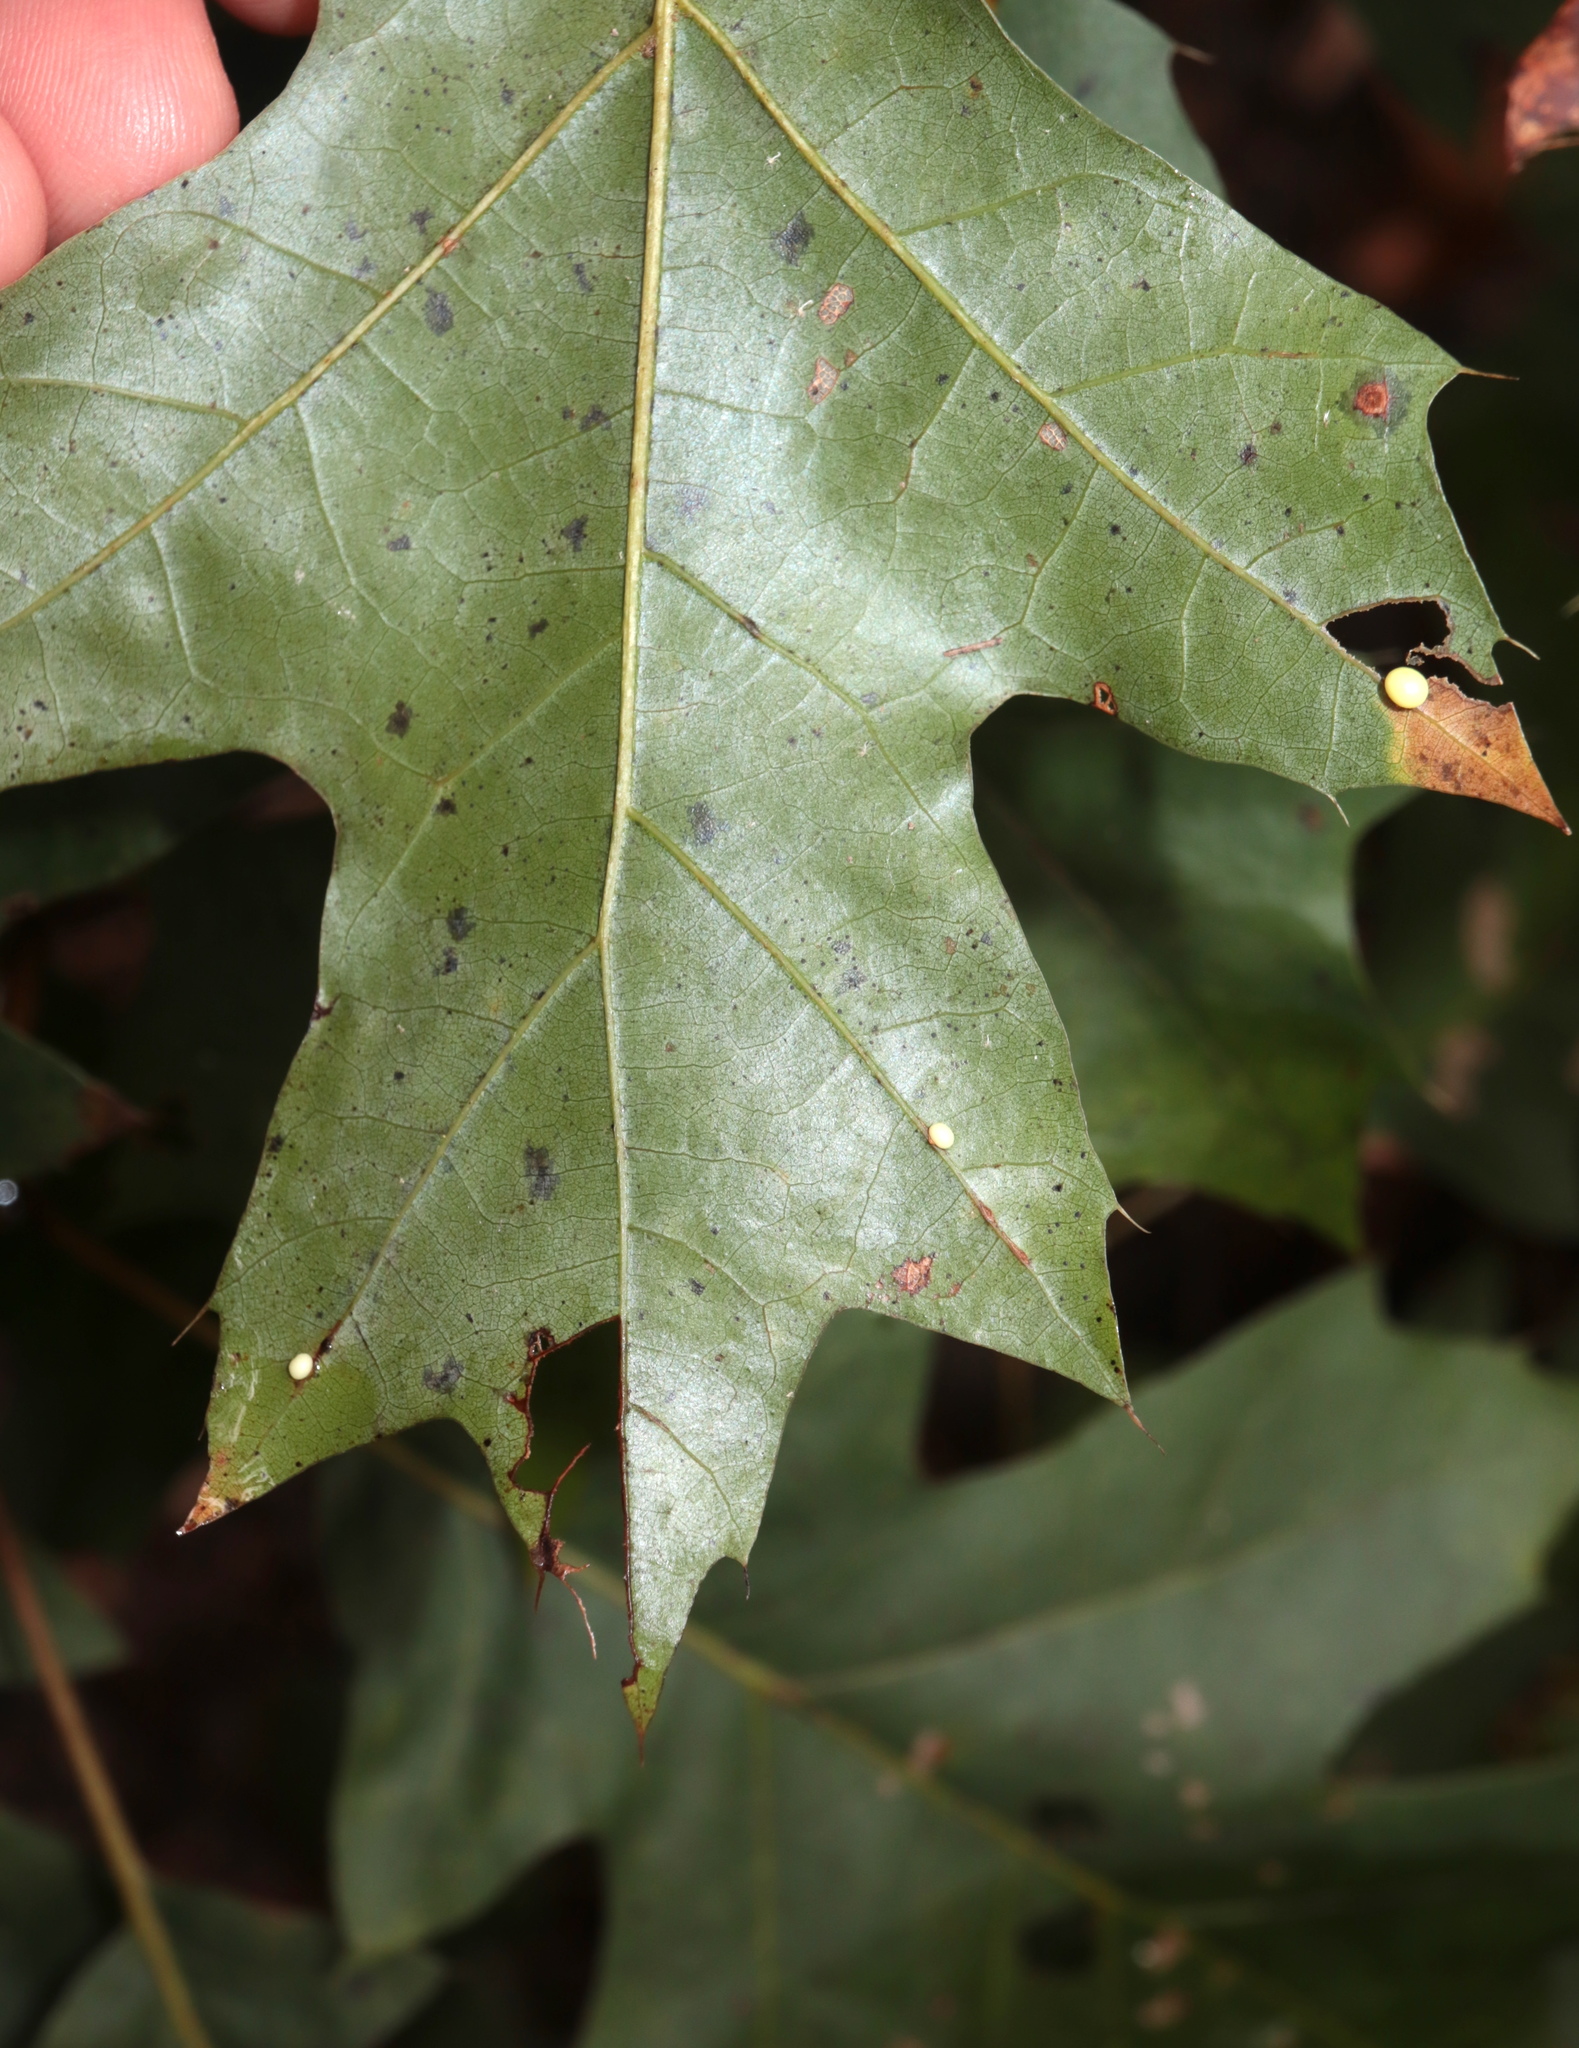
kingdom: Animalia
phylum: Arthropoda
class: Insecta
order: Hymenoptera
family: Cynipidae
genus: Zopheroteras
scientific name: Zopheroteras
